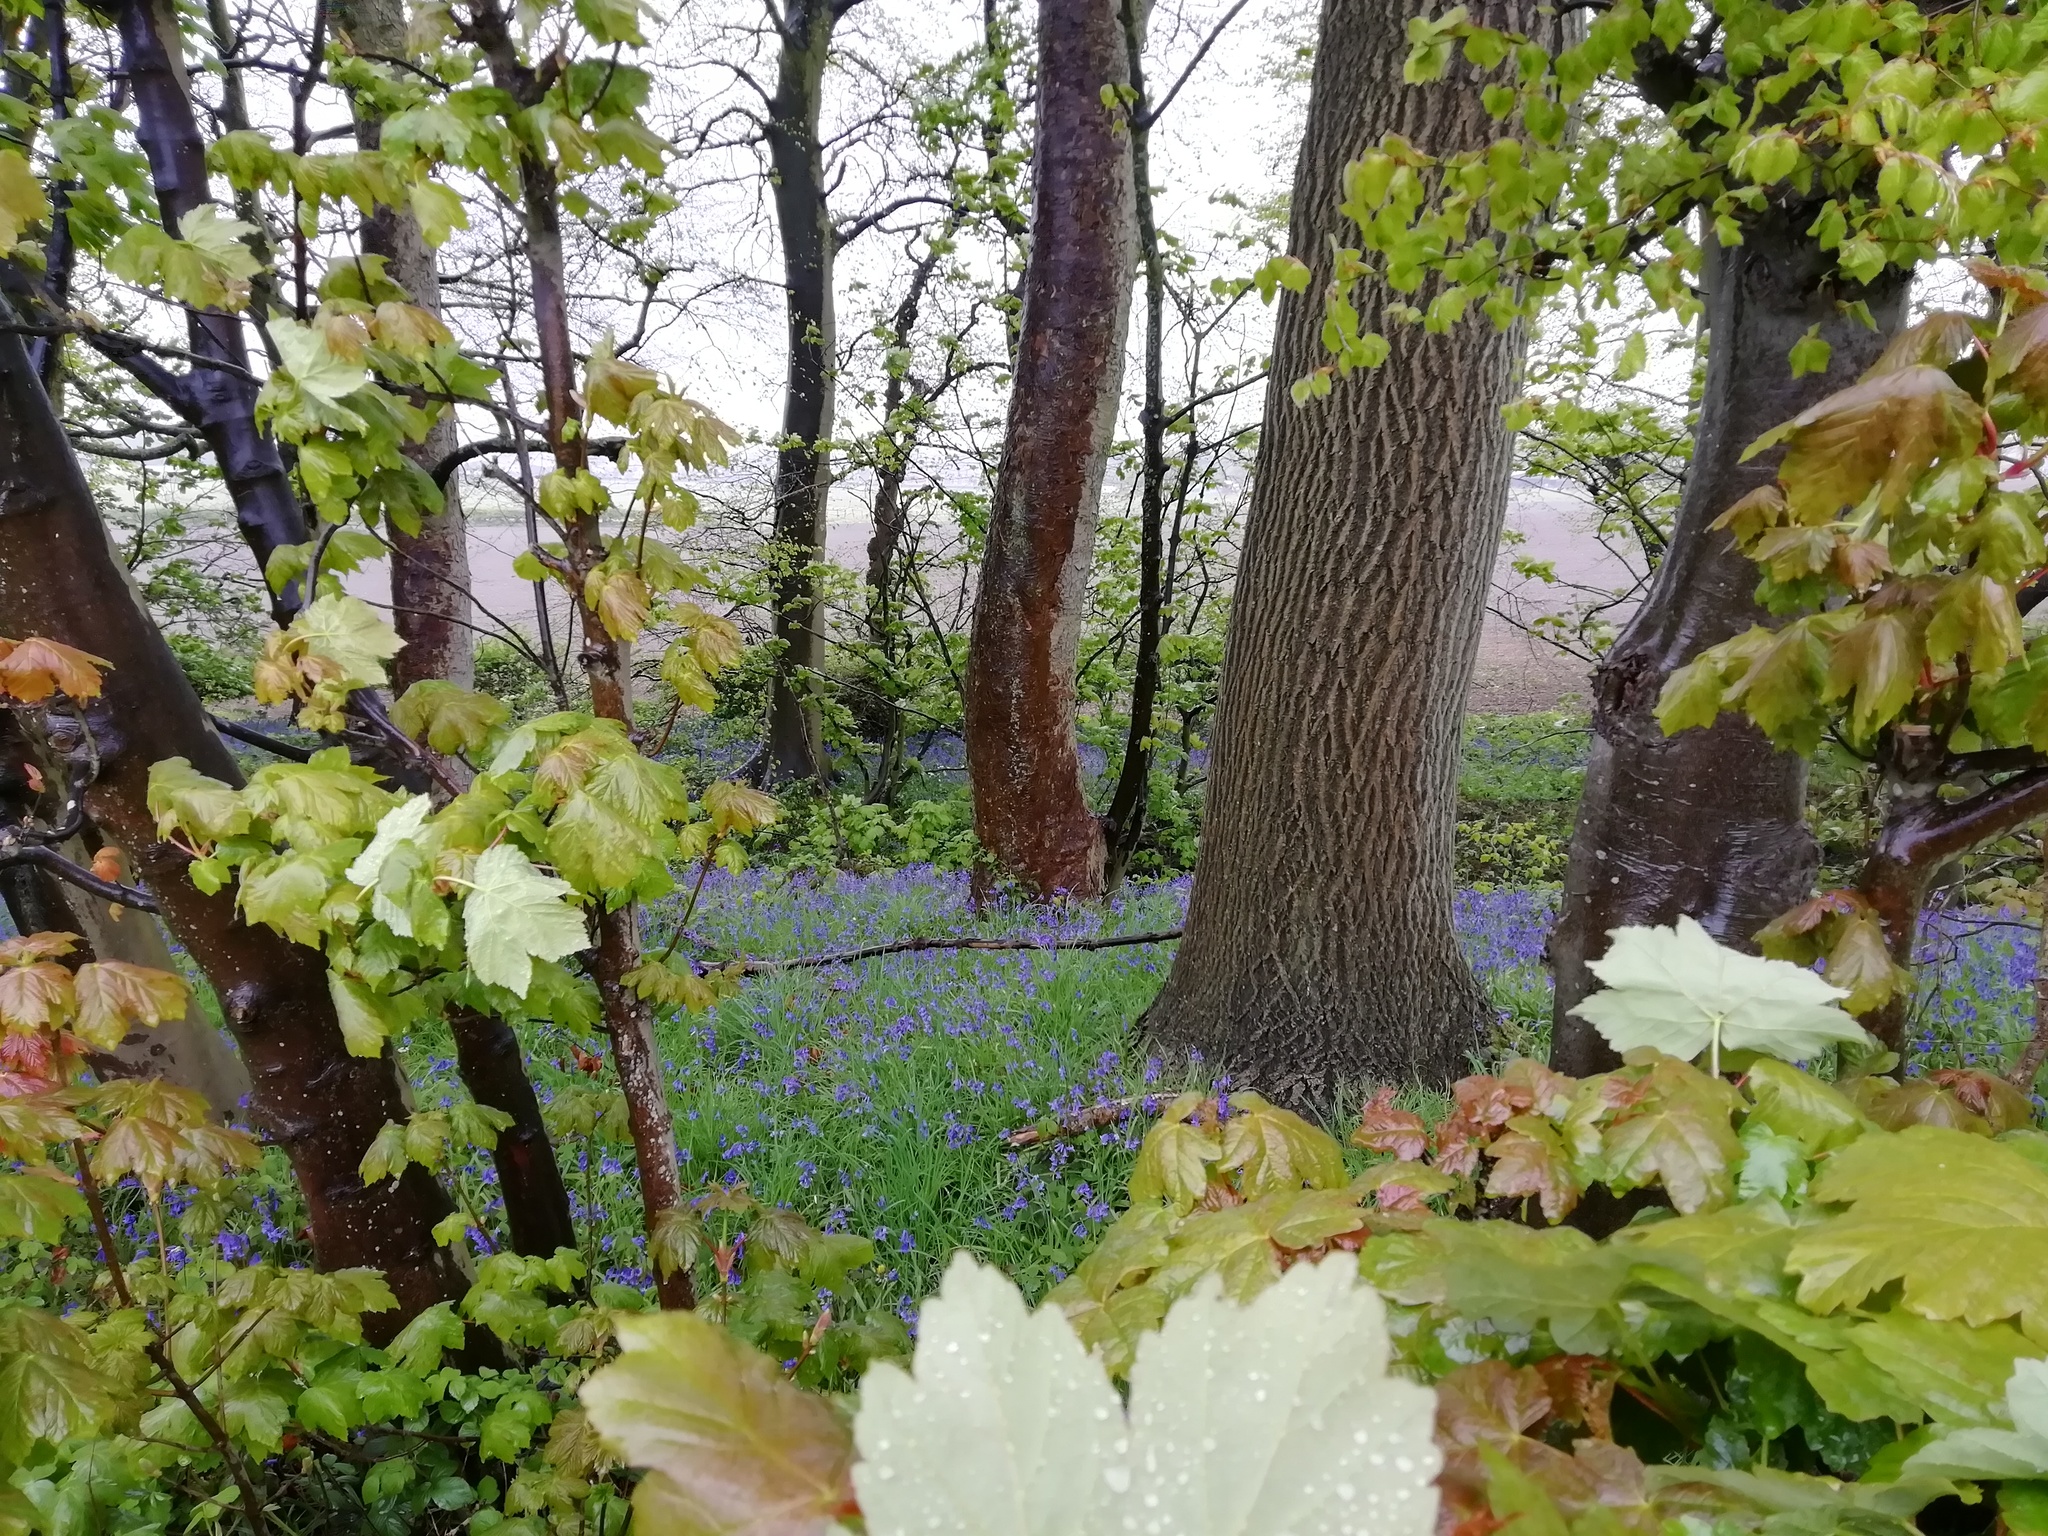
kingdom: Plantae
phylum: Tracheophyta
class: Liliopsida
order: Asparagales
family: Asparagaceae
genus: Hyacinthoides
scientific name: Hyacinthoides non-scripta
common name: Bluebell
